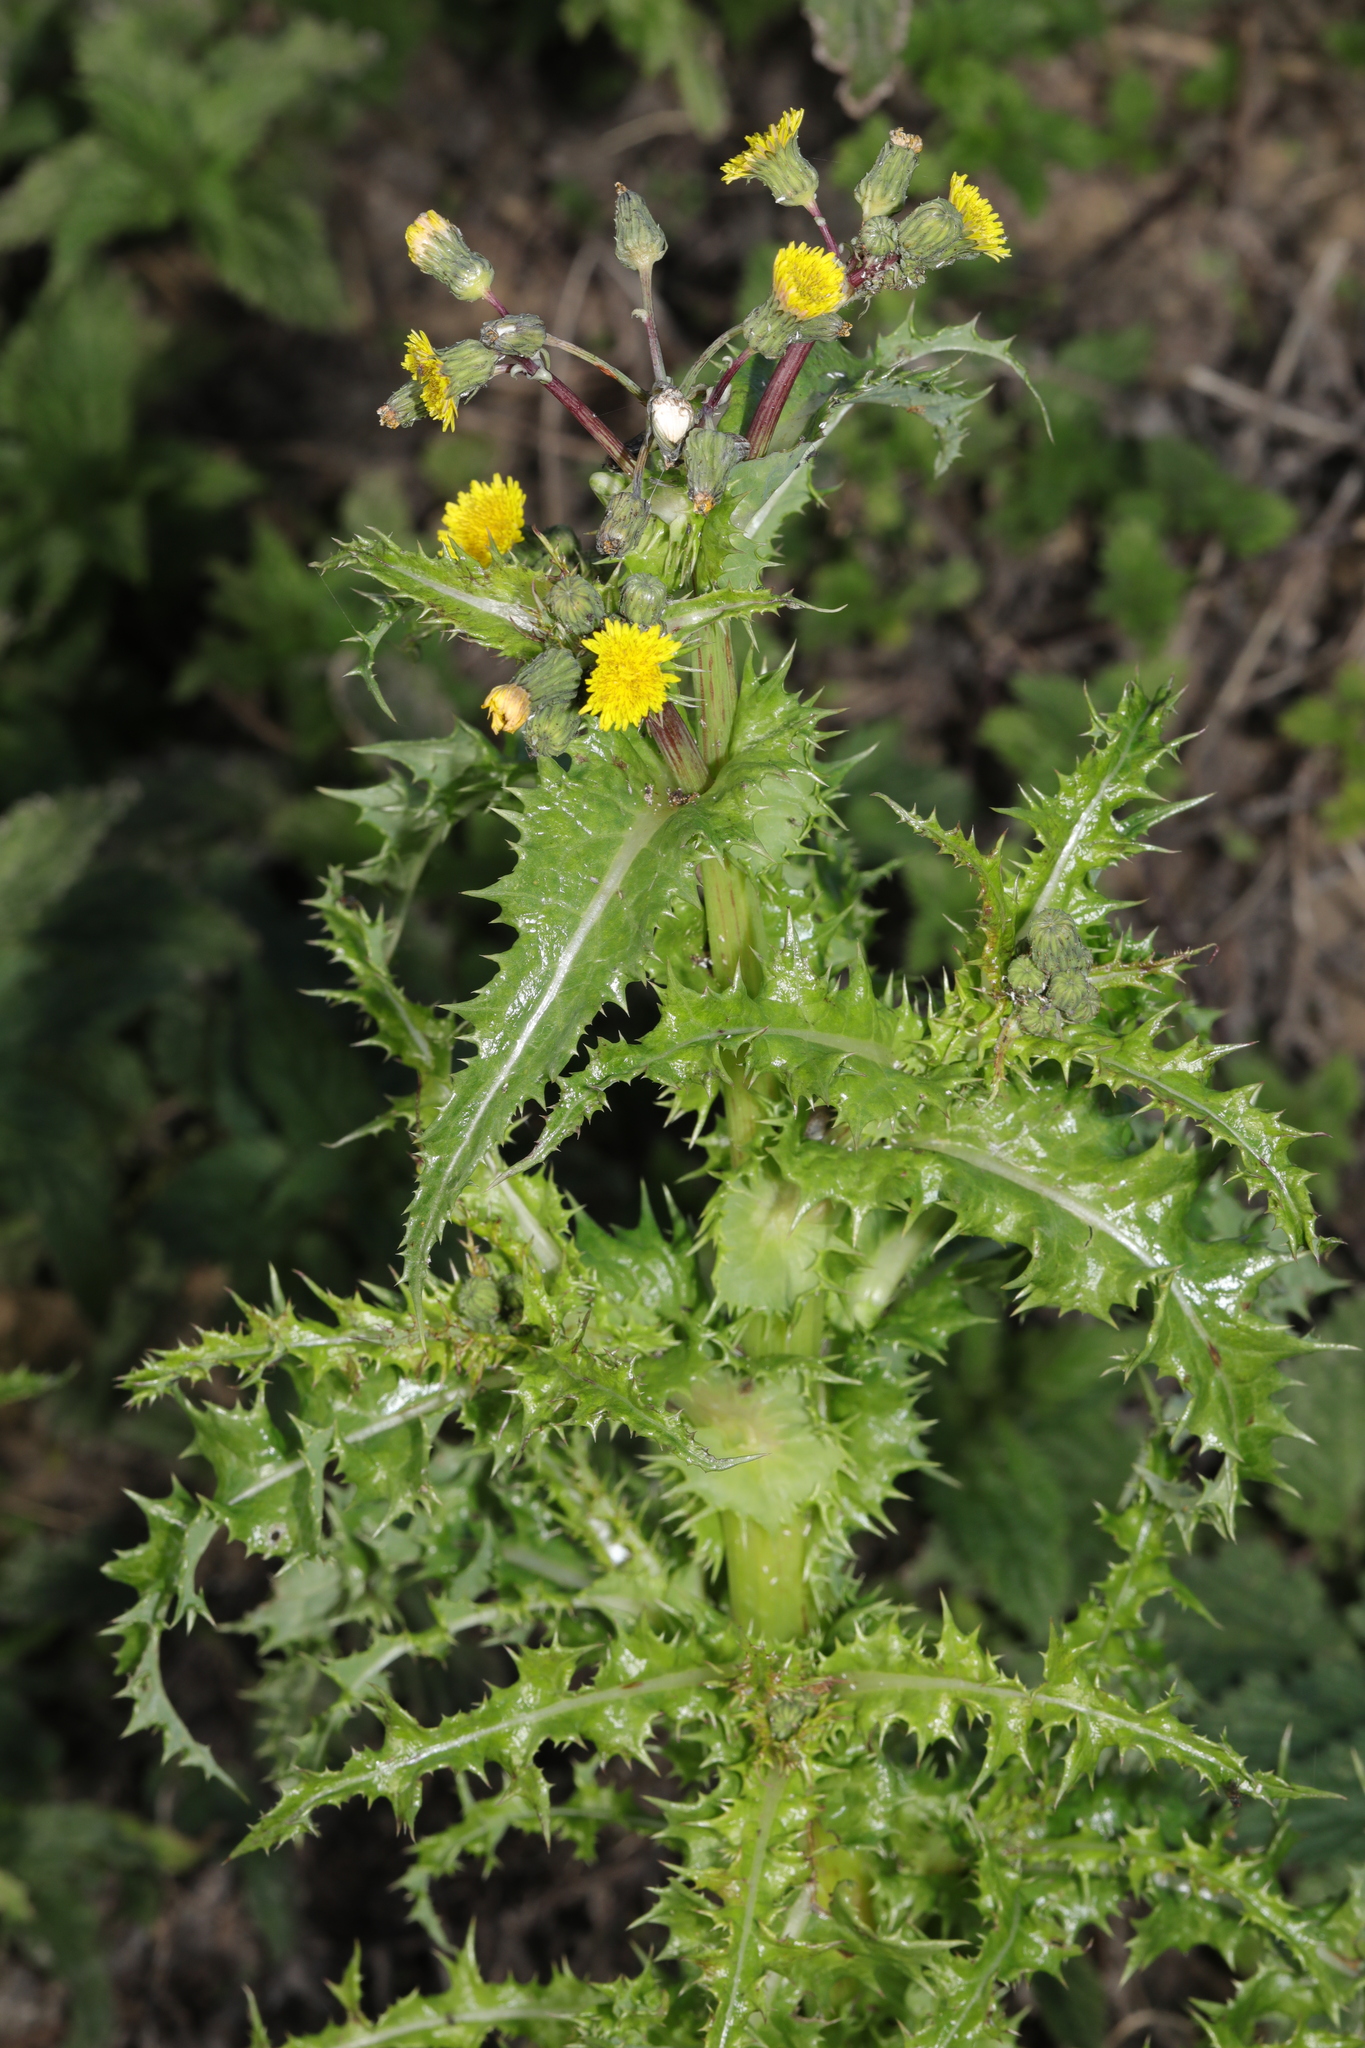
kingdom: Plantae
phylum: Tracheophyta
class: Magnoliopsida
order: Asterales
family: Asteraceae
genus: Sonchus
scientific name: Sonchus asper
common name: Prickly sow-thistle
